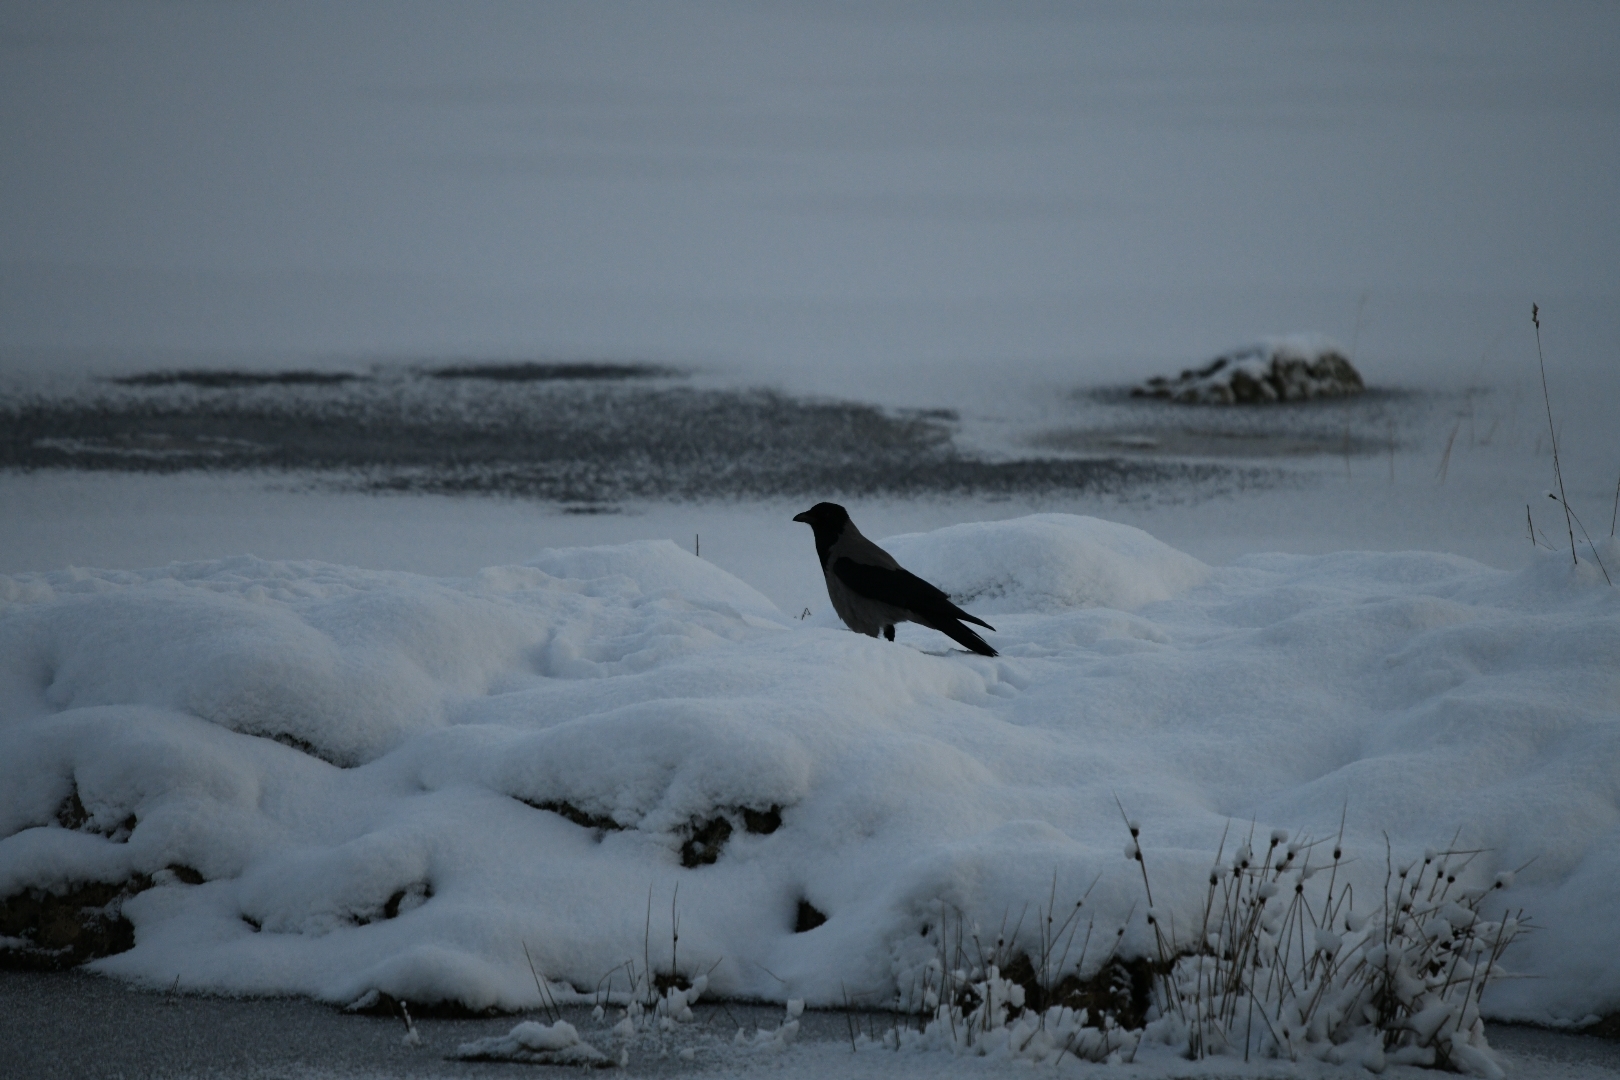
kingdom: Animalia
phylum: Chordata
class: Aves
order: Passeriformes
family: Corvidae
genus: Corvus
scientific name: Corvus cornix
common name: Hooded crow
